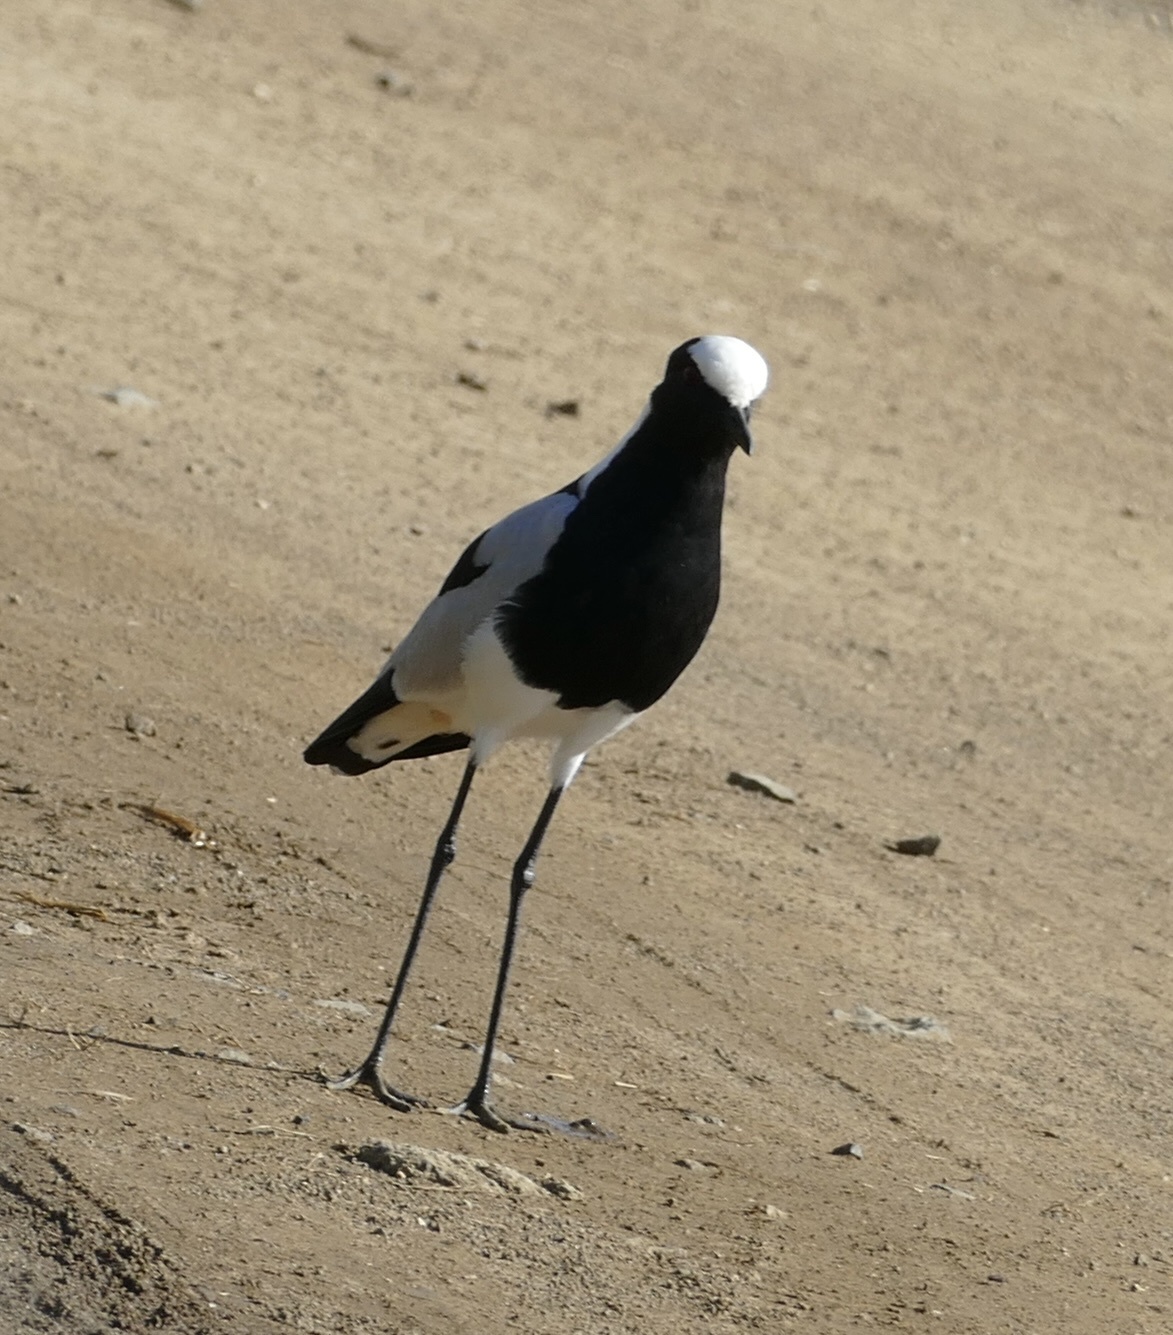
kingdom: Animalia
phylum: Chordata
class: Aves
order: Charadriiformes
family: Charadriidae
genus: Vanellus
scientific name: Vanellus armatus
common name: Blacksmith lapwing
